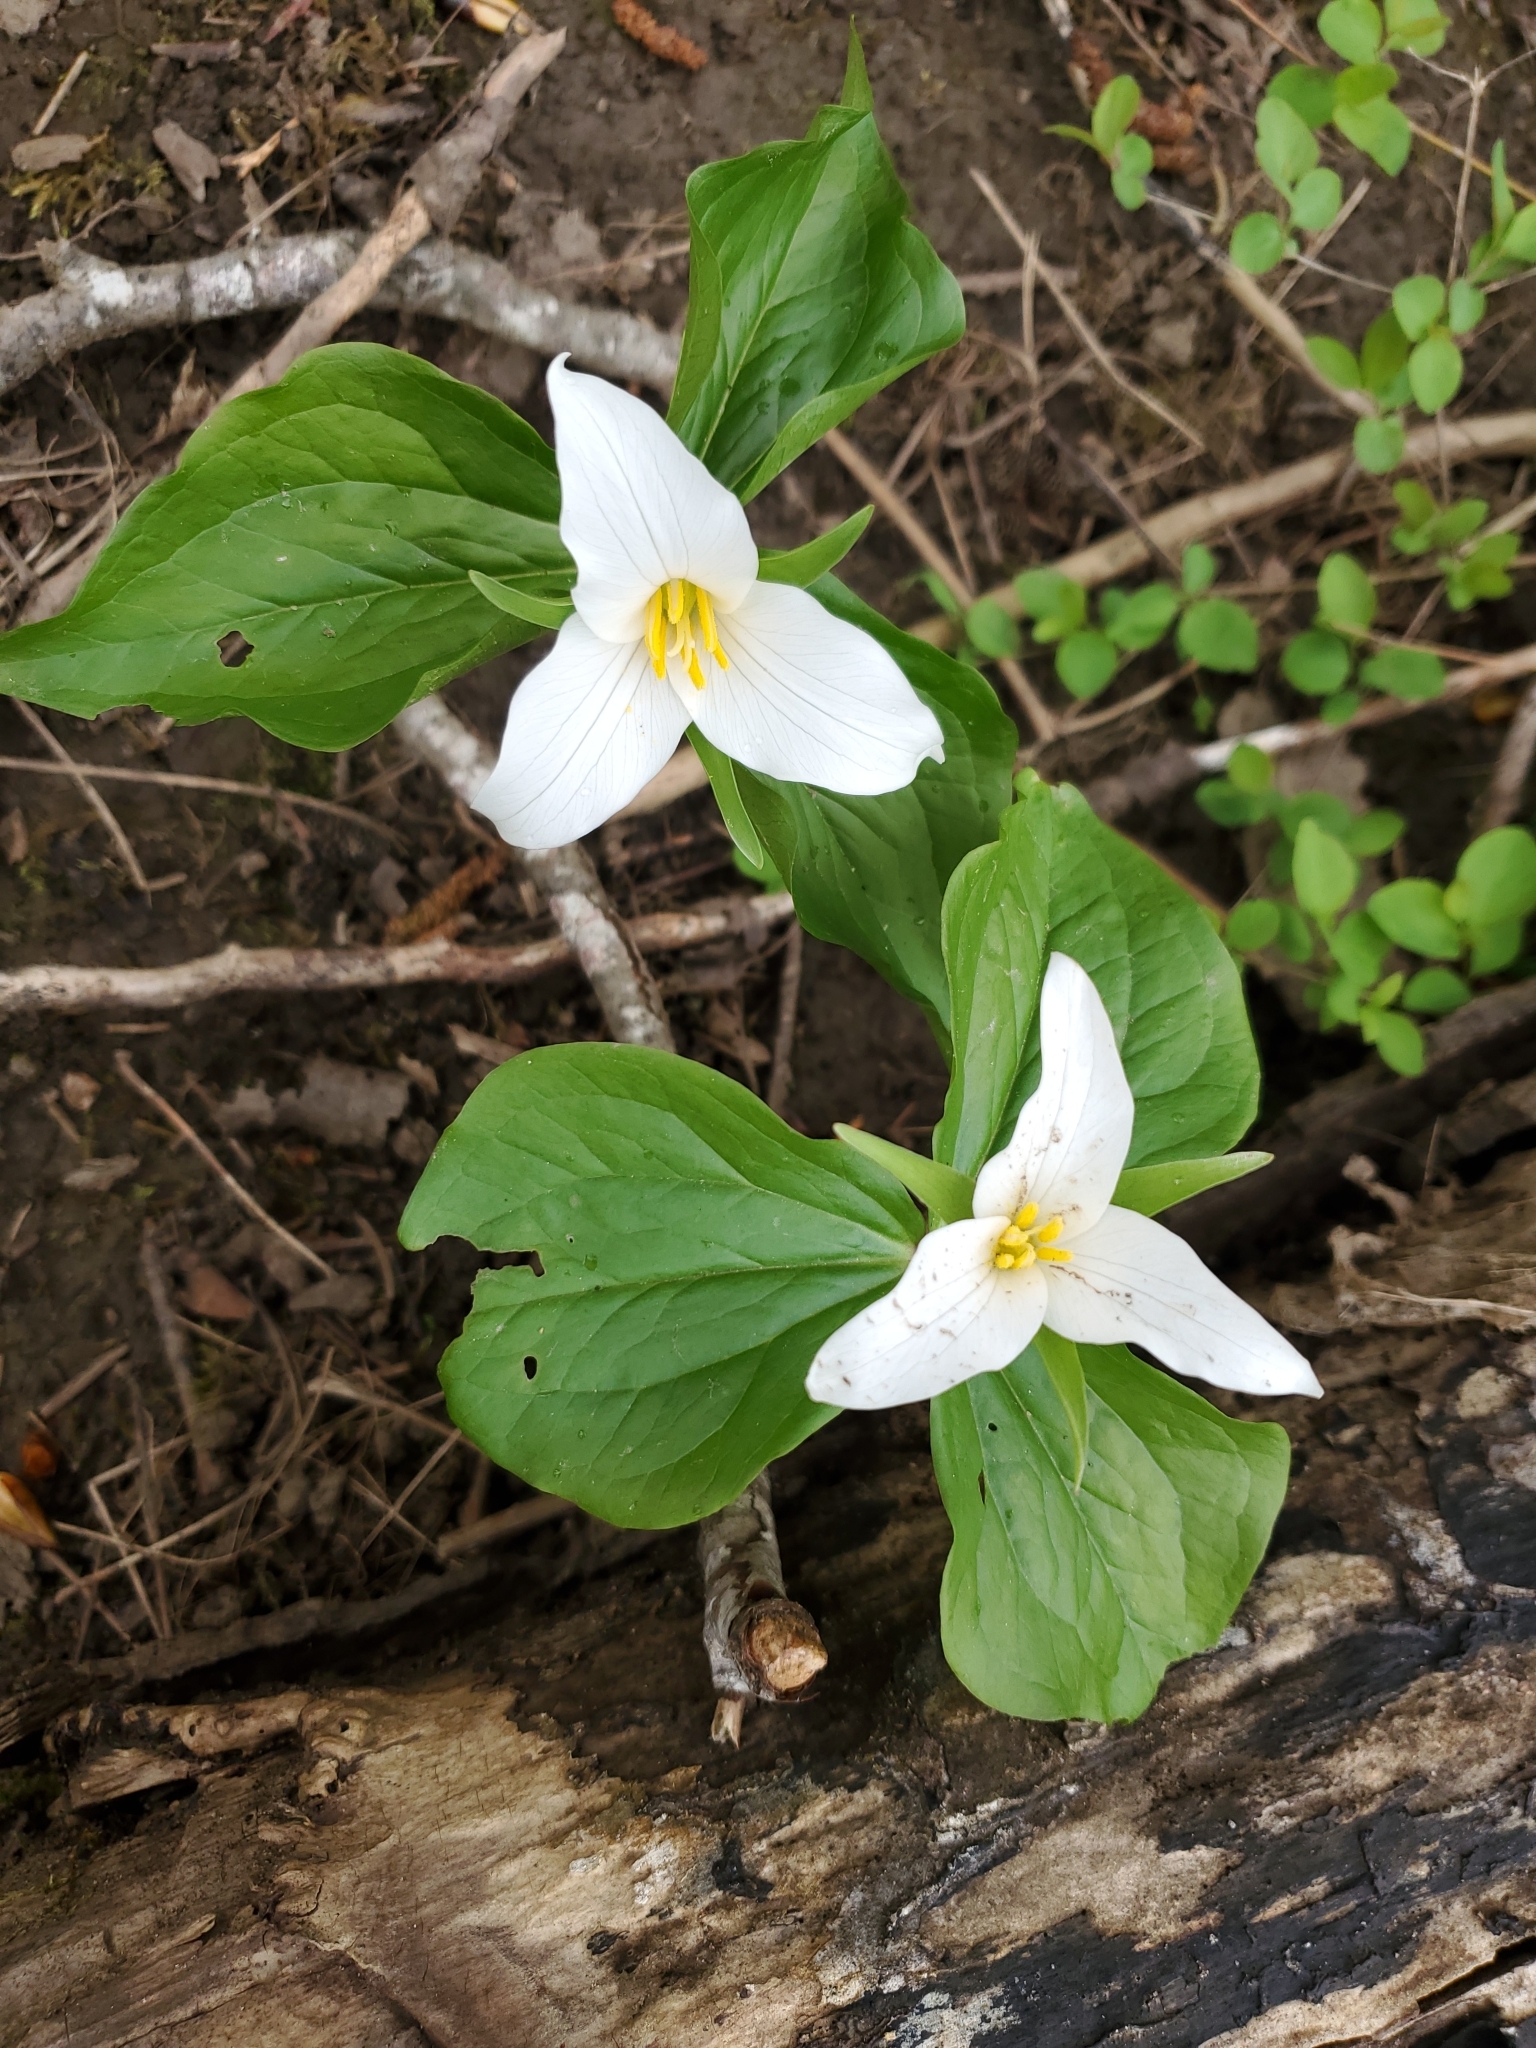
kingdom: Plantae
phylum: Tracheophyta
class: Liliopsida
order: Liliales
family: Melanthiaceae
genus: Trillium
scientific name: Trillium ovatum
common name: Pacific trillium
